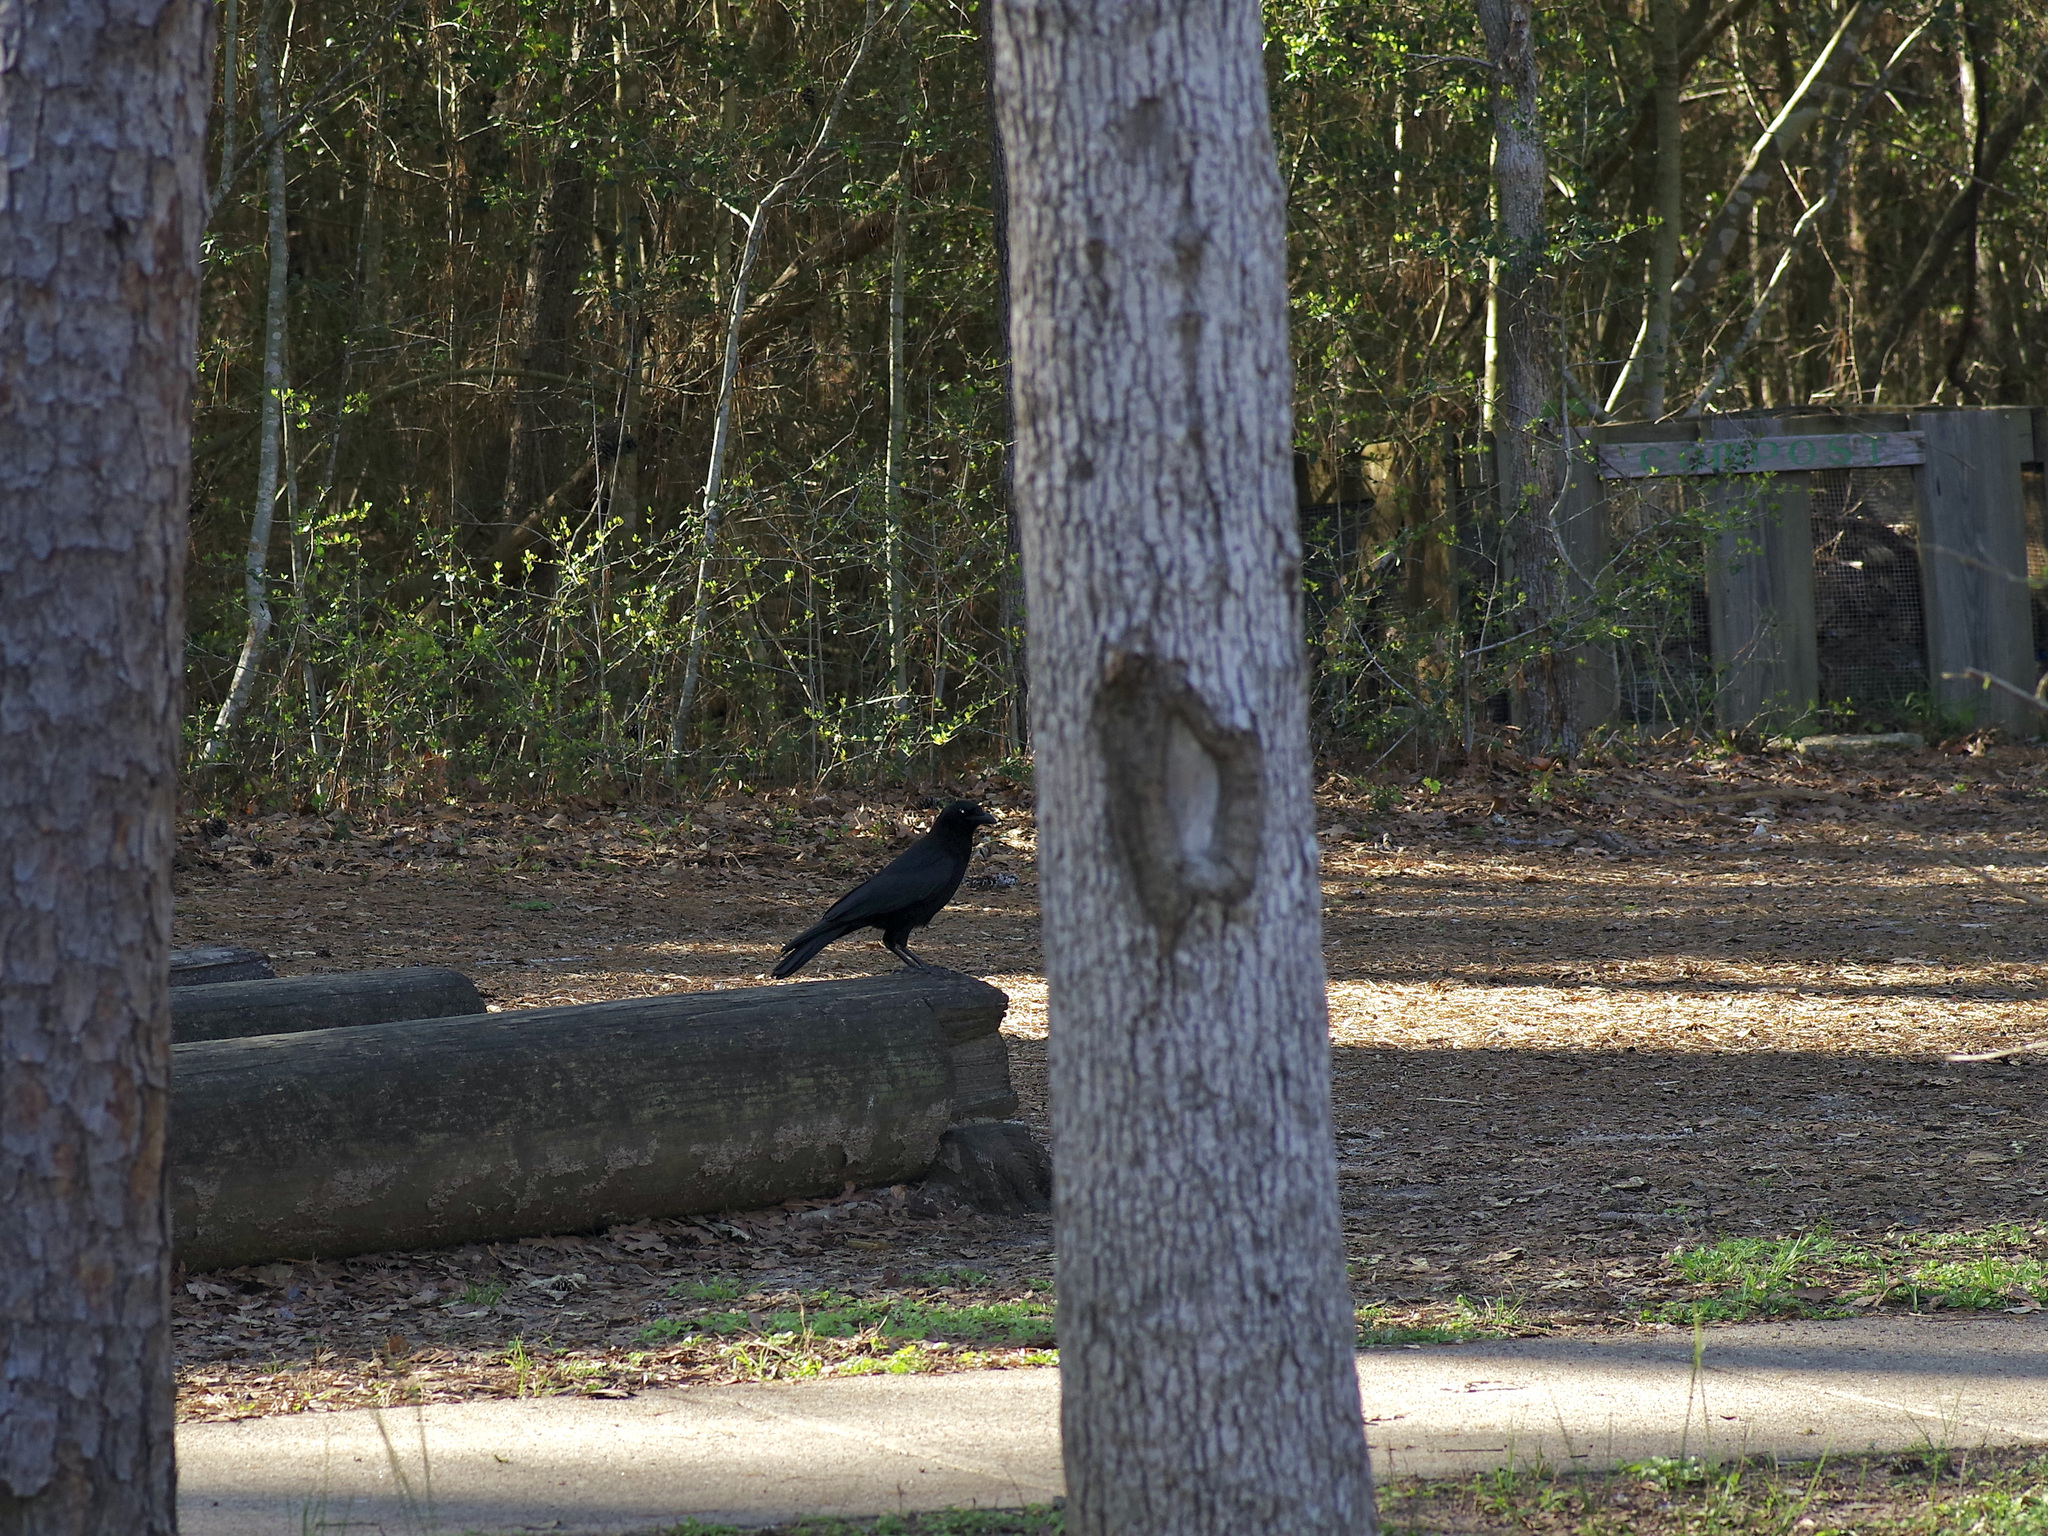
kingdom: Animalia
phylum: Chordata
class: Aves
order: Passeriformes
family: Corvidae
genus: Corvus
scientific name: Corvus brachyrhynchos
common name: American crow
